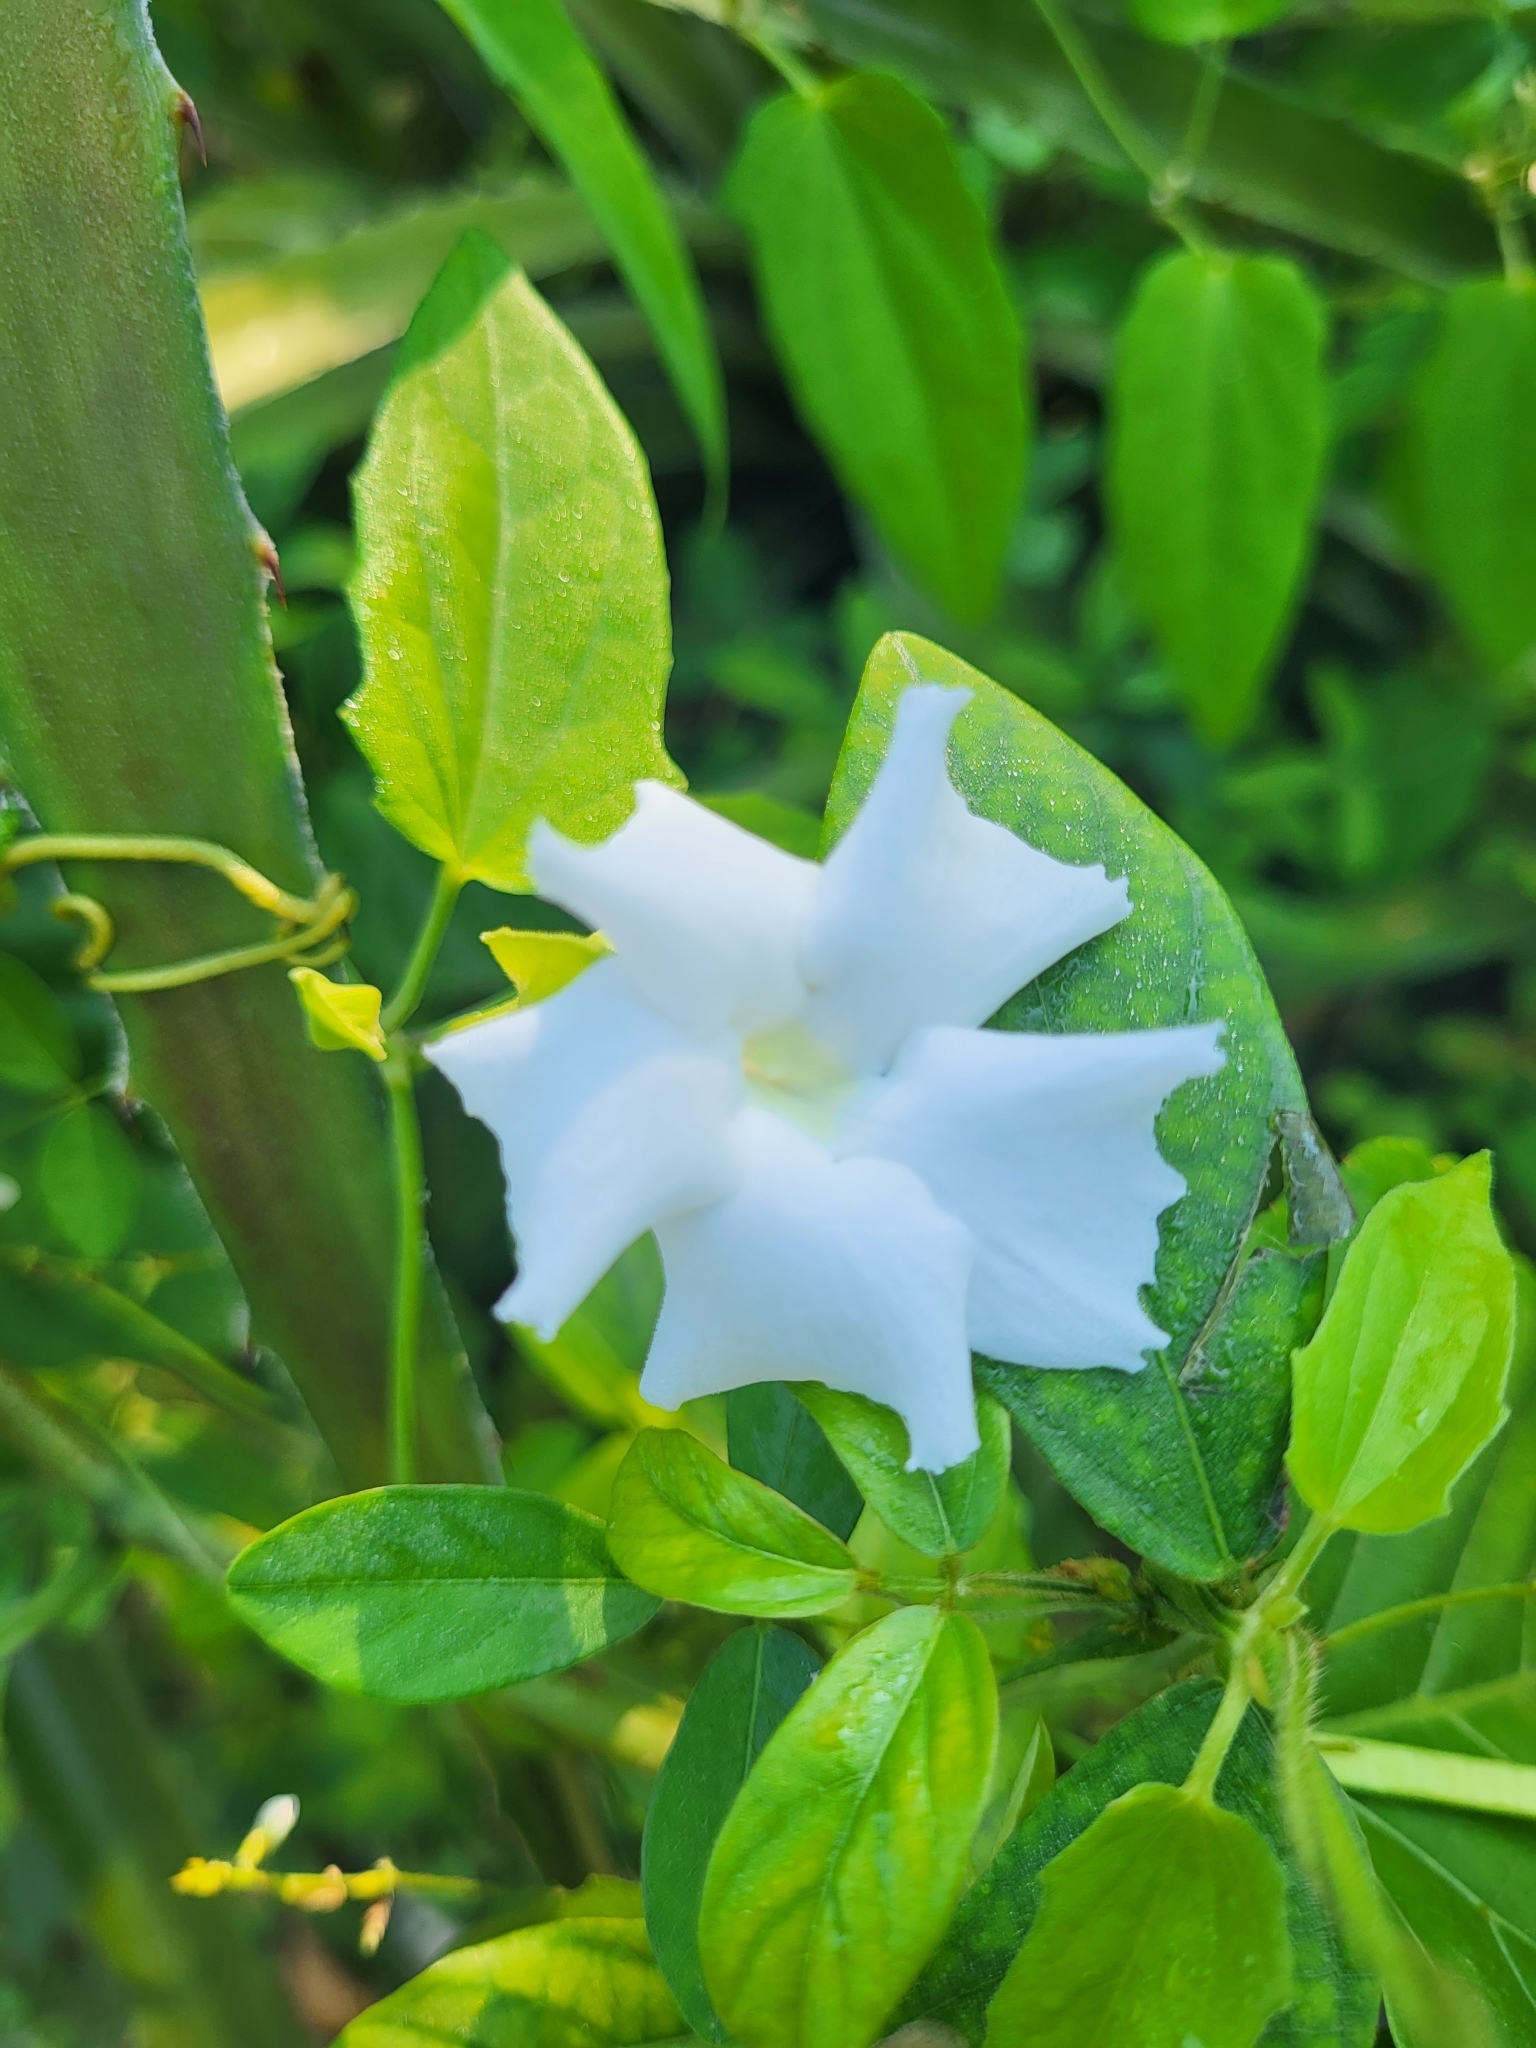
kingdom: Plantae
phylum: Tracheophyta
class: Magnoliopsida
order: Lamiales
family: Acanthaceae
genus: Thunbergia
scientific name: Thunbergia fragrans
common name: Whitelady
